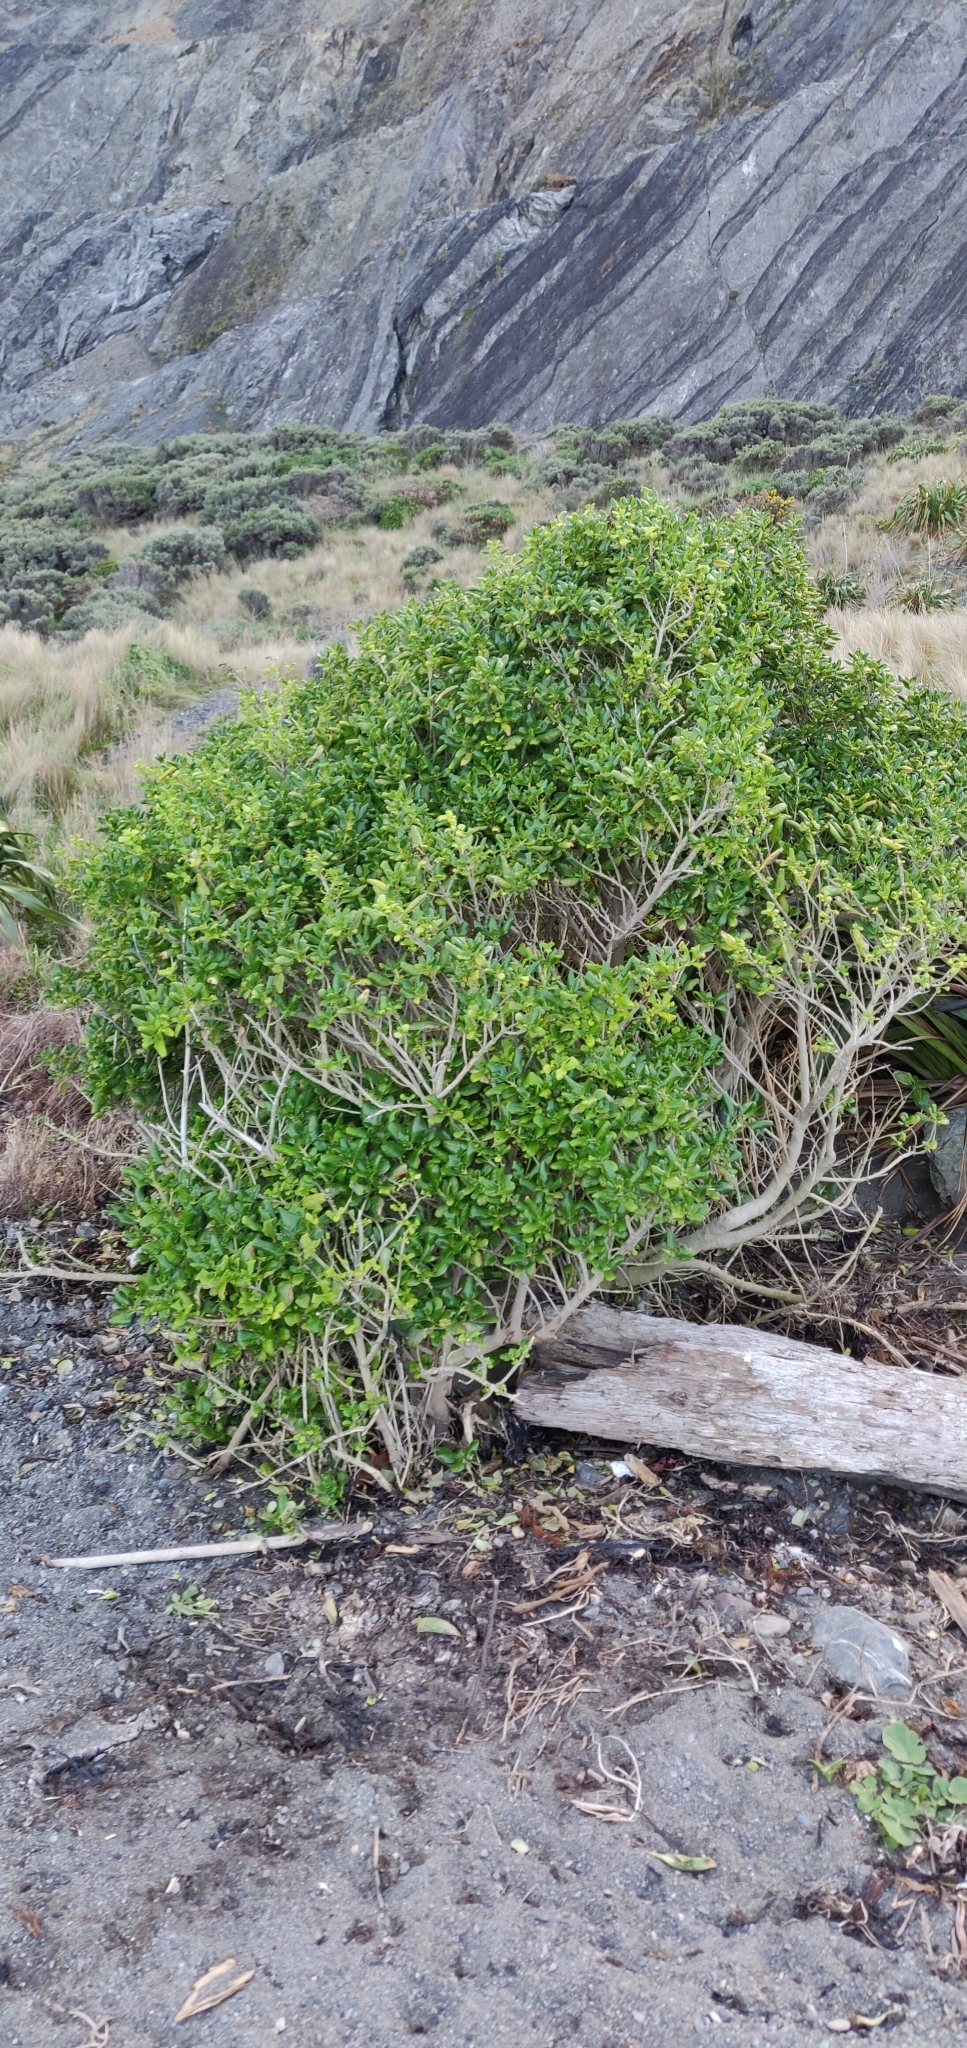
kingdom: Plantae
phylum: Tracheophyta
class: Magnoliopsida
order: Gentianales
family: Rubiaceae
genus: Coprosma
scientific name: Coprosma repens
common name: Tree bedstraw
